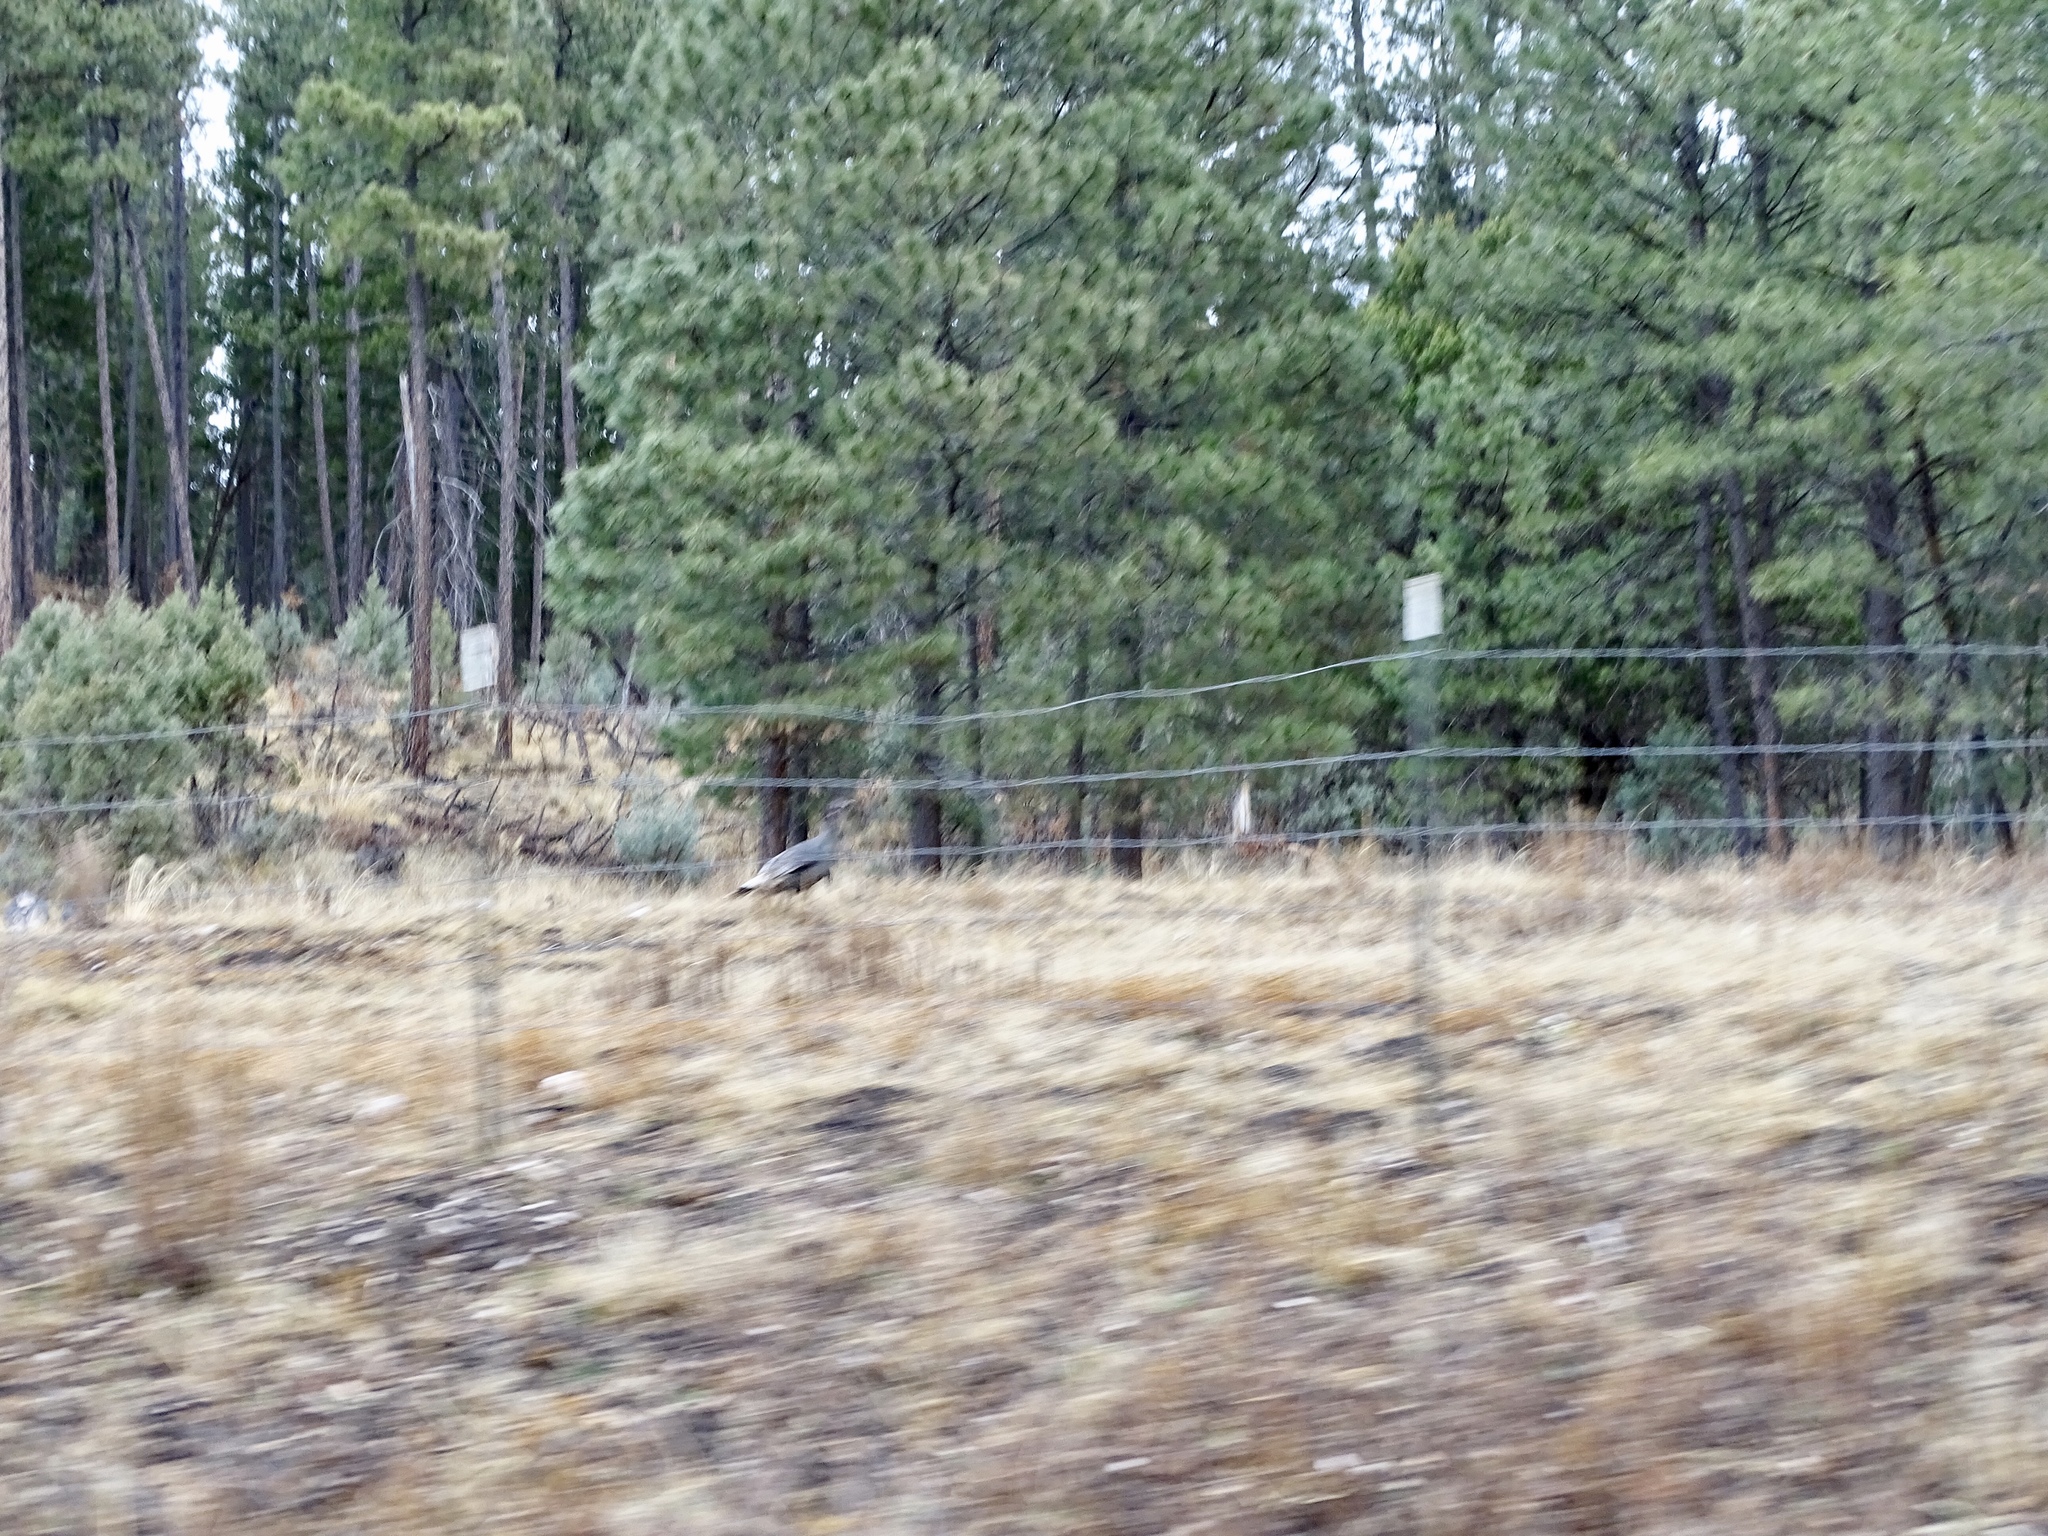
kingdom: Animalia
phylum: Chordata
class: Aves
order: Galliformes
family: Phasianidae
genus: Meleagris
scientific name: Meleagris gallopavo
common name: Wild turkey
